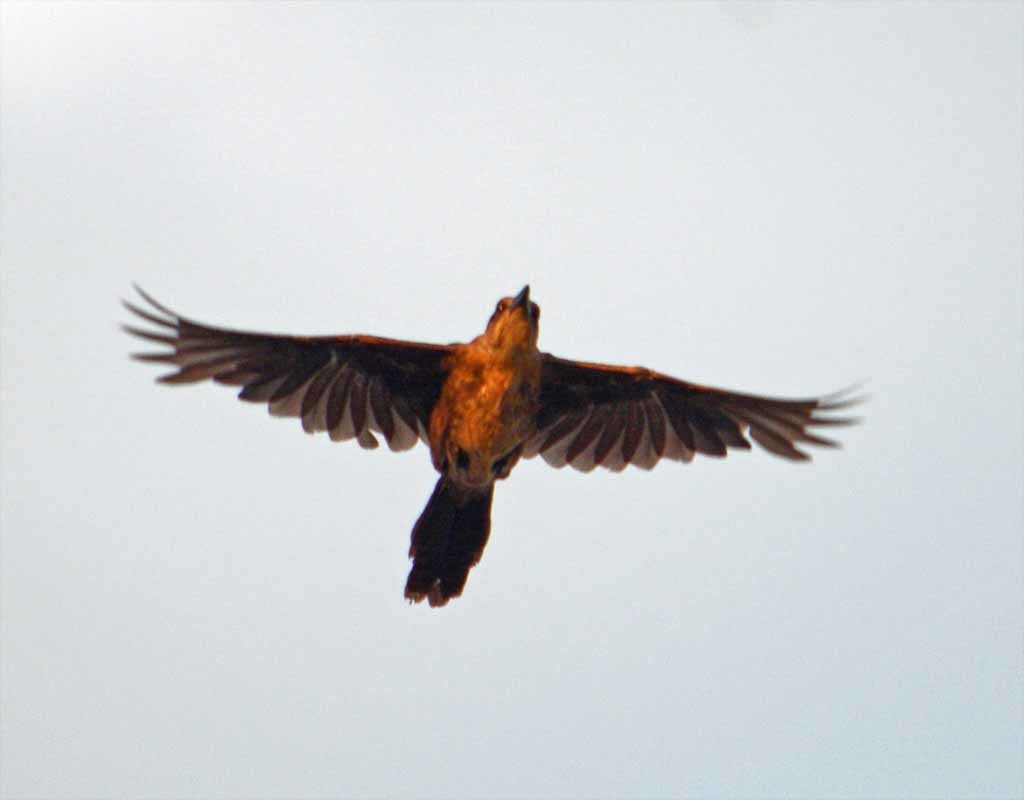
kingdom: Animalia
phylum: Chordata
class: Aves
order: Passeriformes
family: Icteridae
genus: Quiscalus
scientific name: Quiscalus mexicanus
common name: Great-tailed grackle
